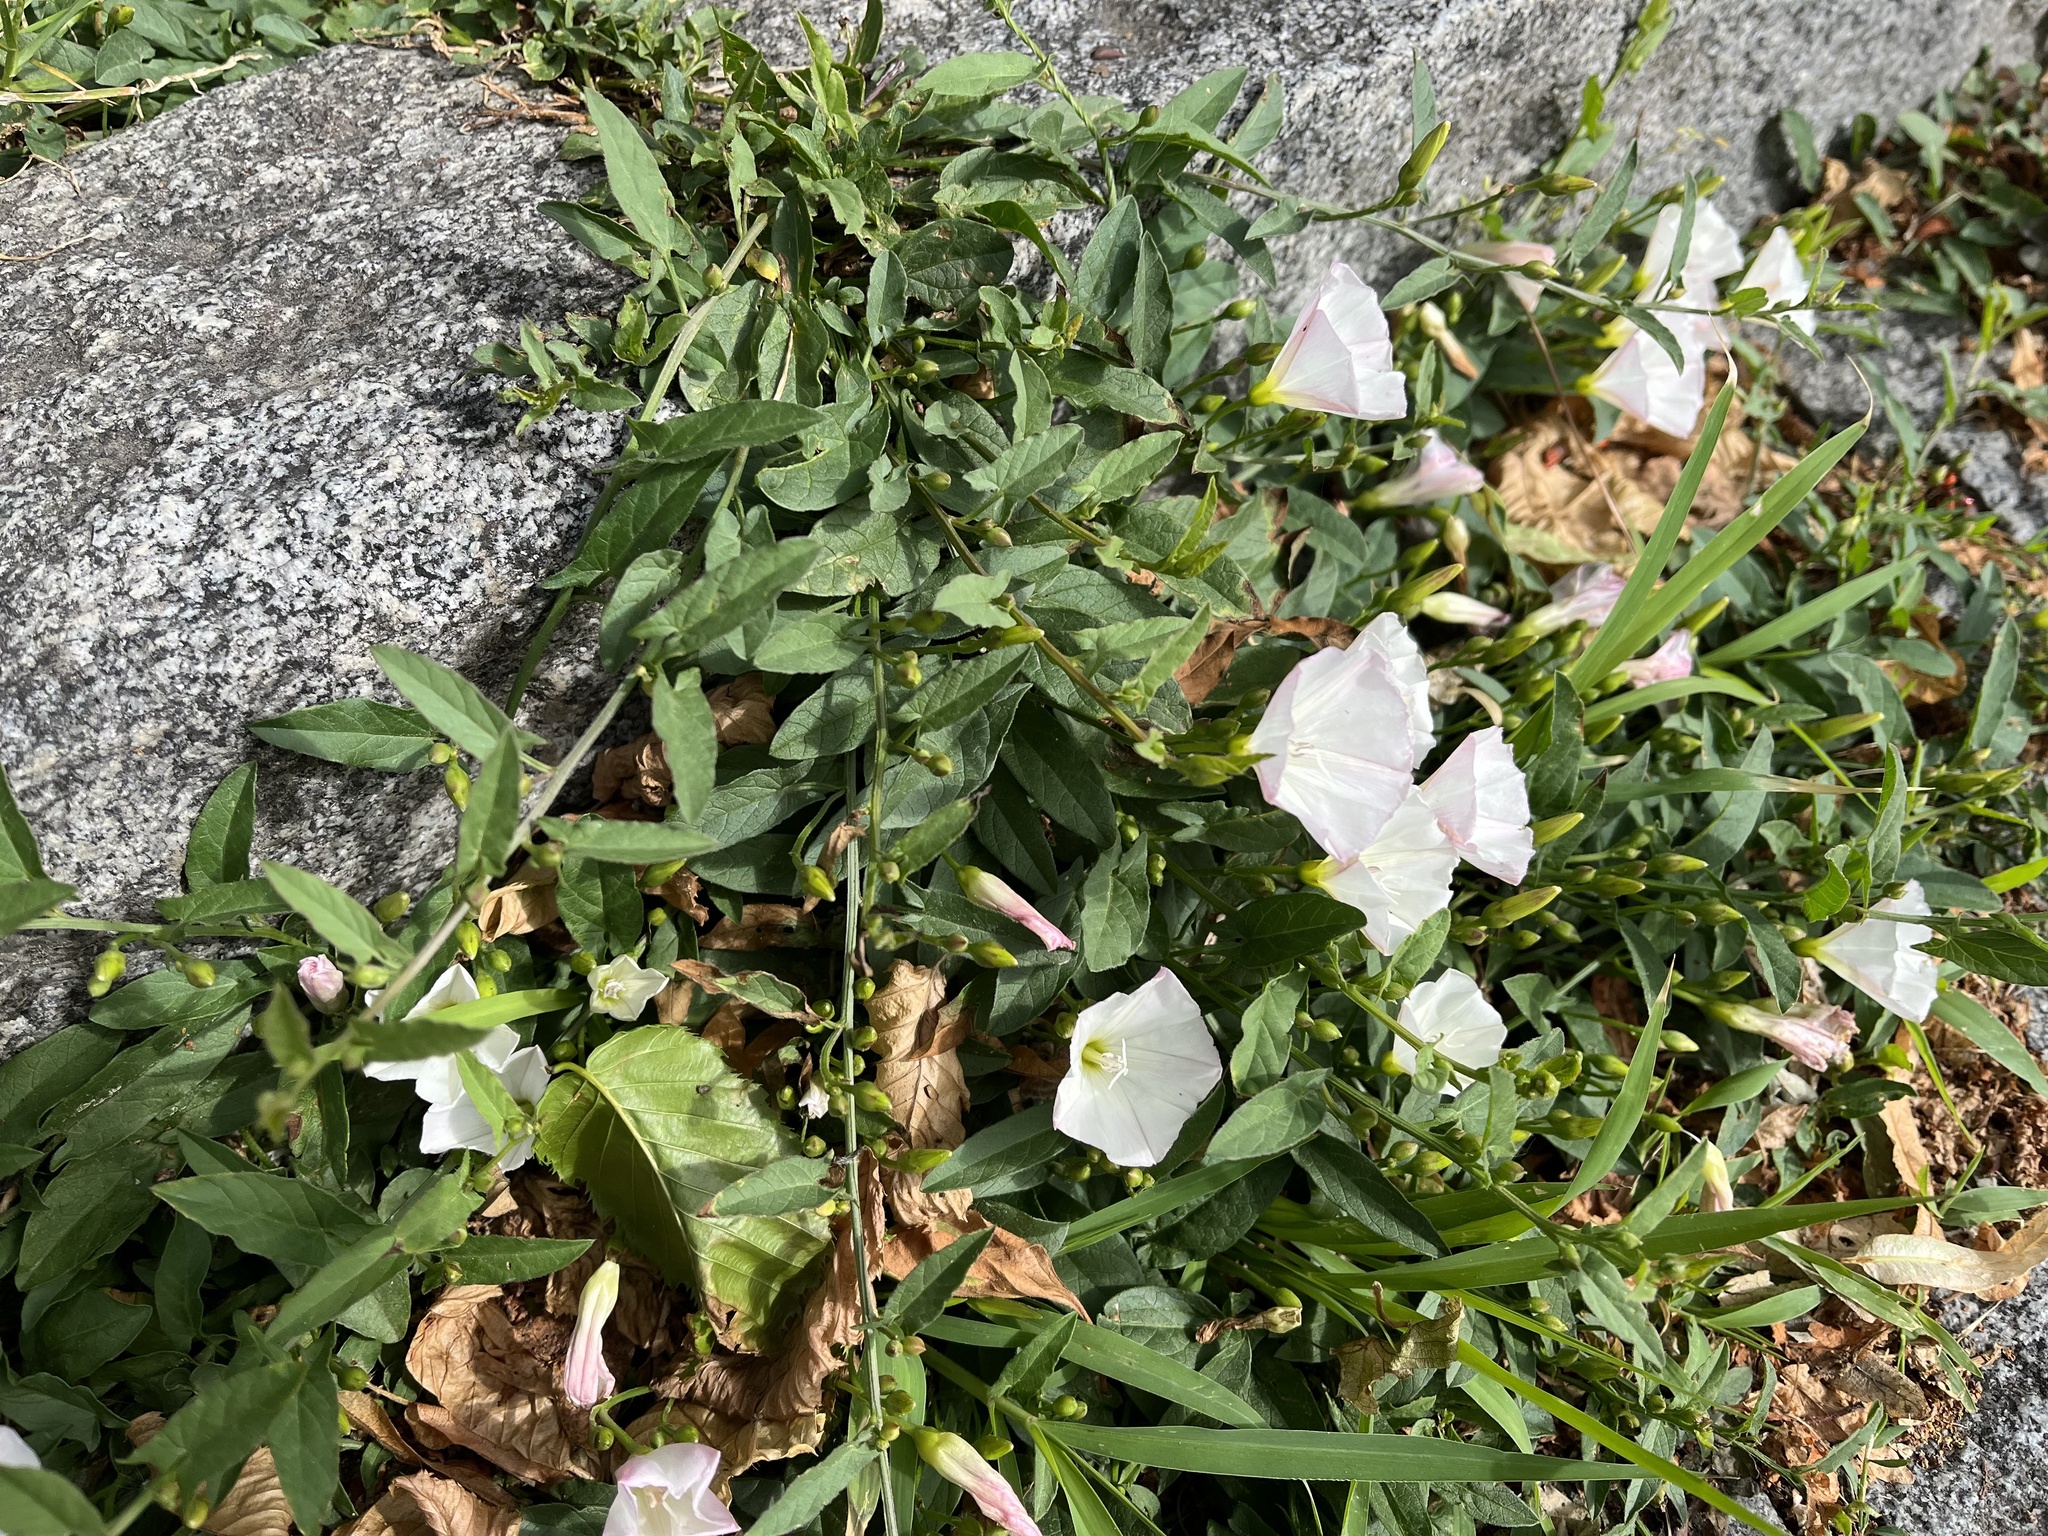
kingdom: Plantae
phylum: Tracheophyta
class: Magnoliopsida
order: Solanales
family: Convolvulaceae
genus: Convolvulus
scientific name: Convolvulus arvensis
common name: Field bindweed
